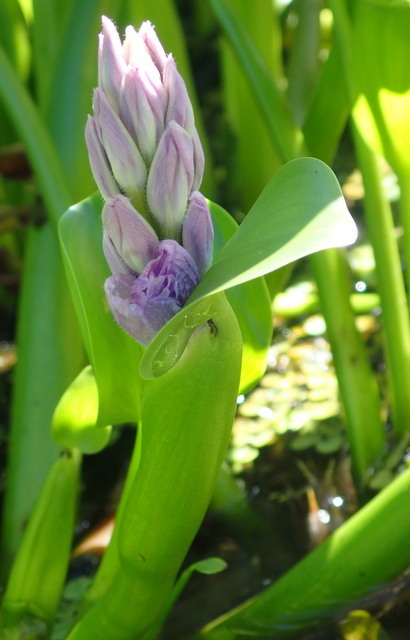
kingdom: Plantae
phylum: Tracheophyta
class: Liliopsida
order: Commelinales
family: Pontederiaceae
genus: Pontederia
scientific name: Pontederia crassipes
